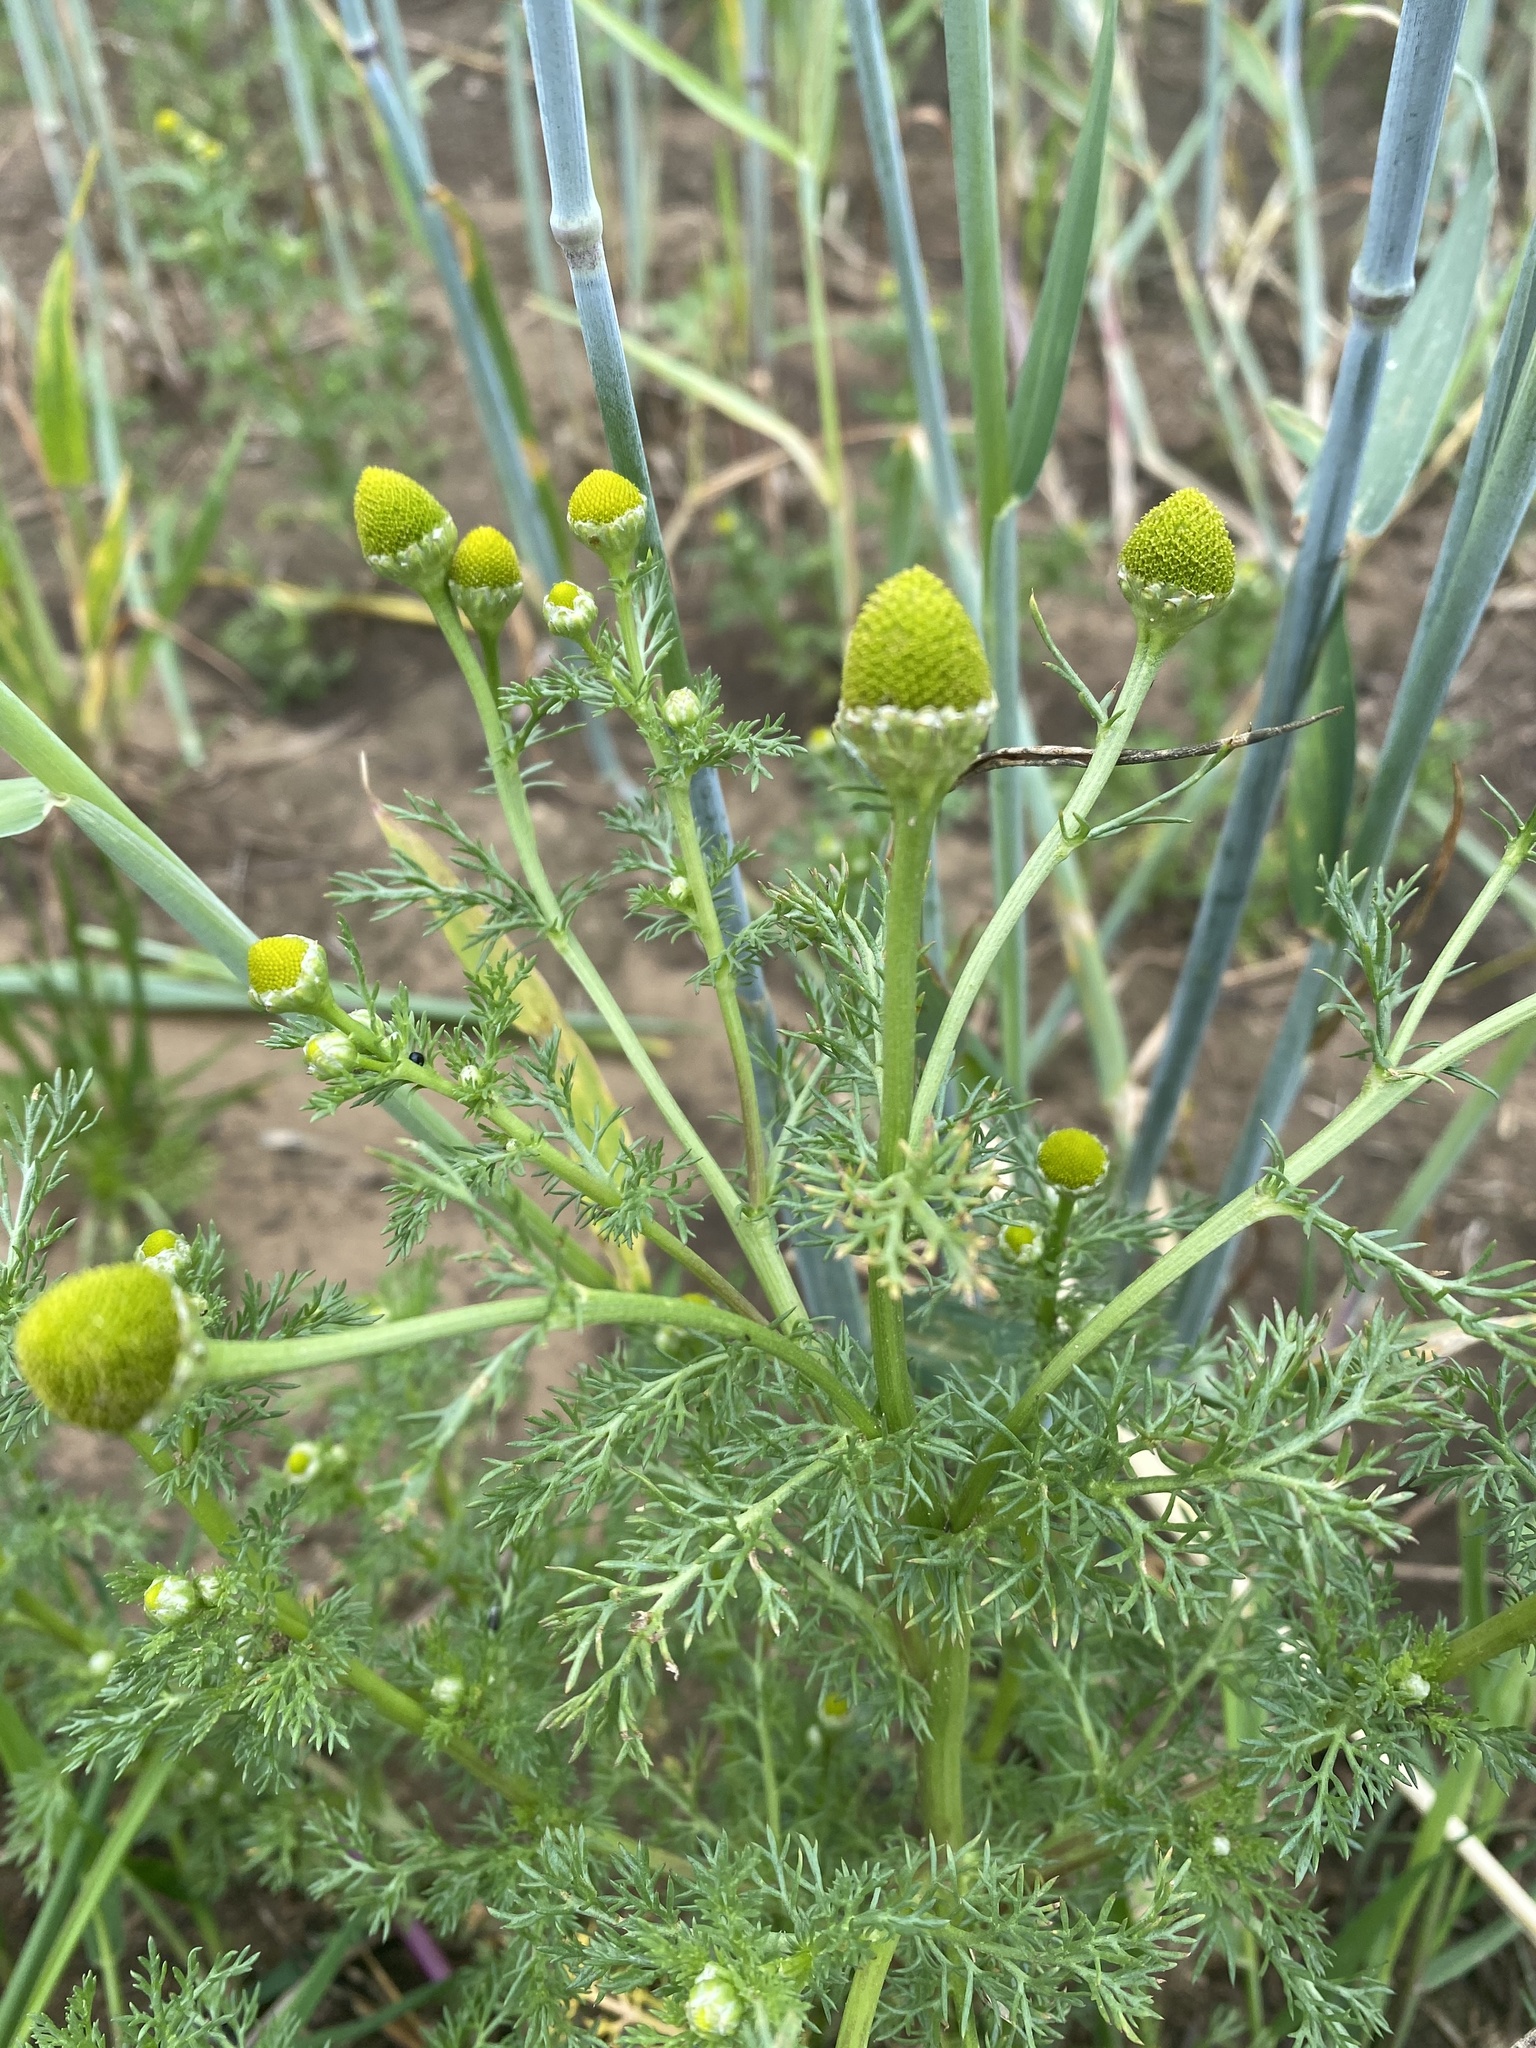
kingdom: Plantae
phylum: Tracheophyta
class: Magnoliopsida
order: Asterales
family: Asteraceae
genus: Matricaria
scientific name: Matricaria discoidea
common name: Disc mayweed
